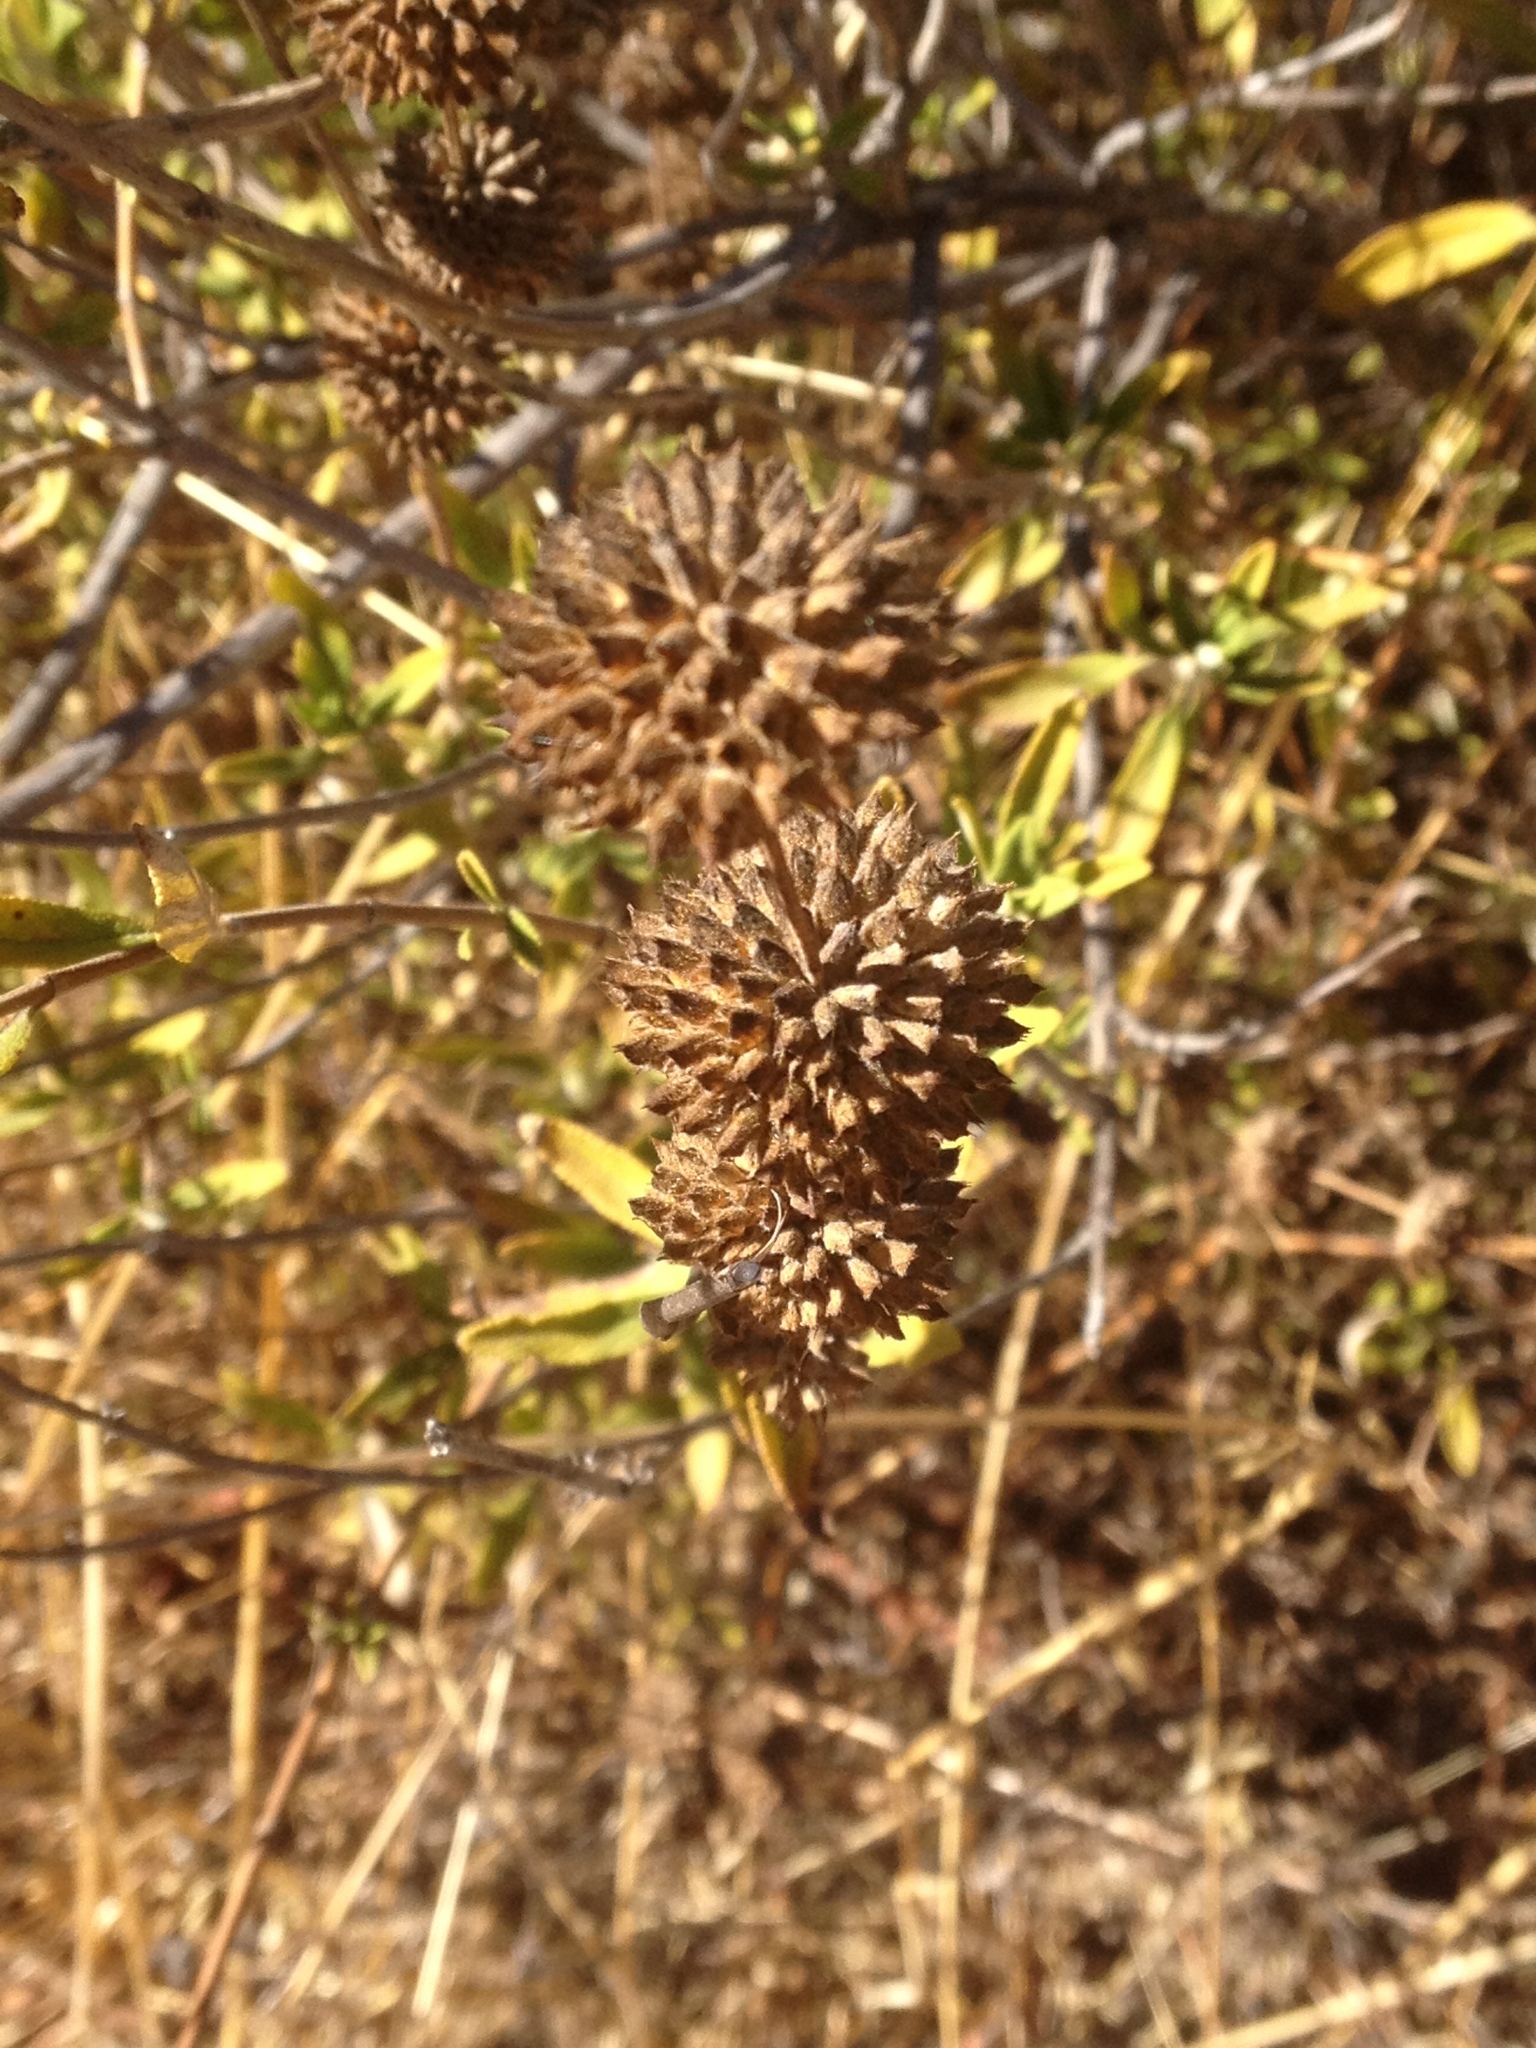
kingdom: Plantae
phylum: Tracheophyta
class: Magnoliopsida
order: Lamiales
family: Lamiaceae
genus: Salvia
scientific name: Salvia mellifera
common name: Black sage
